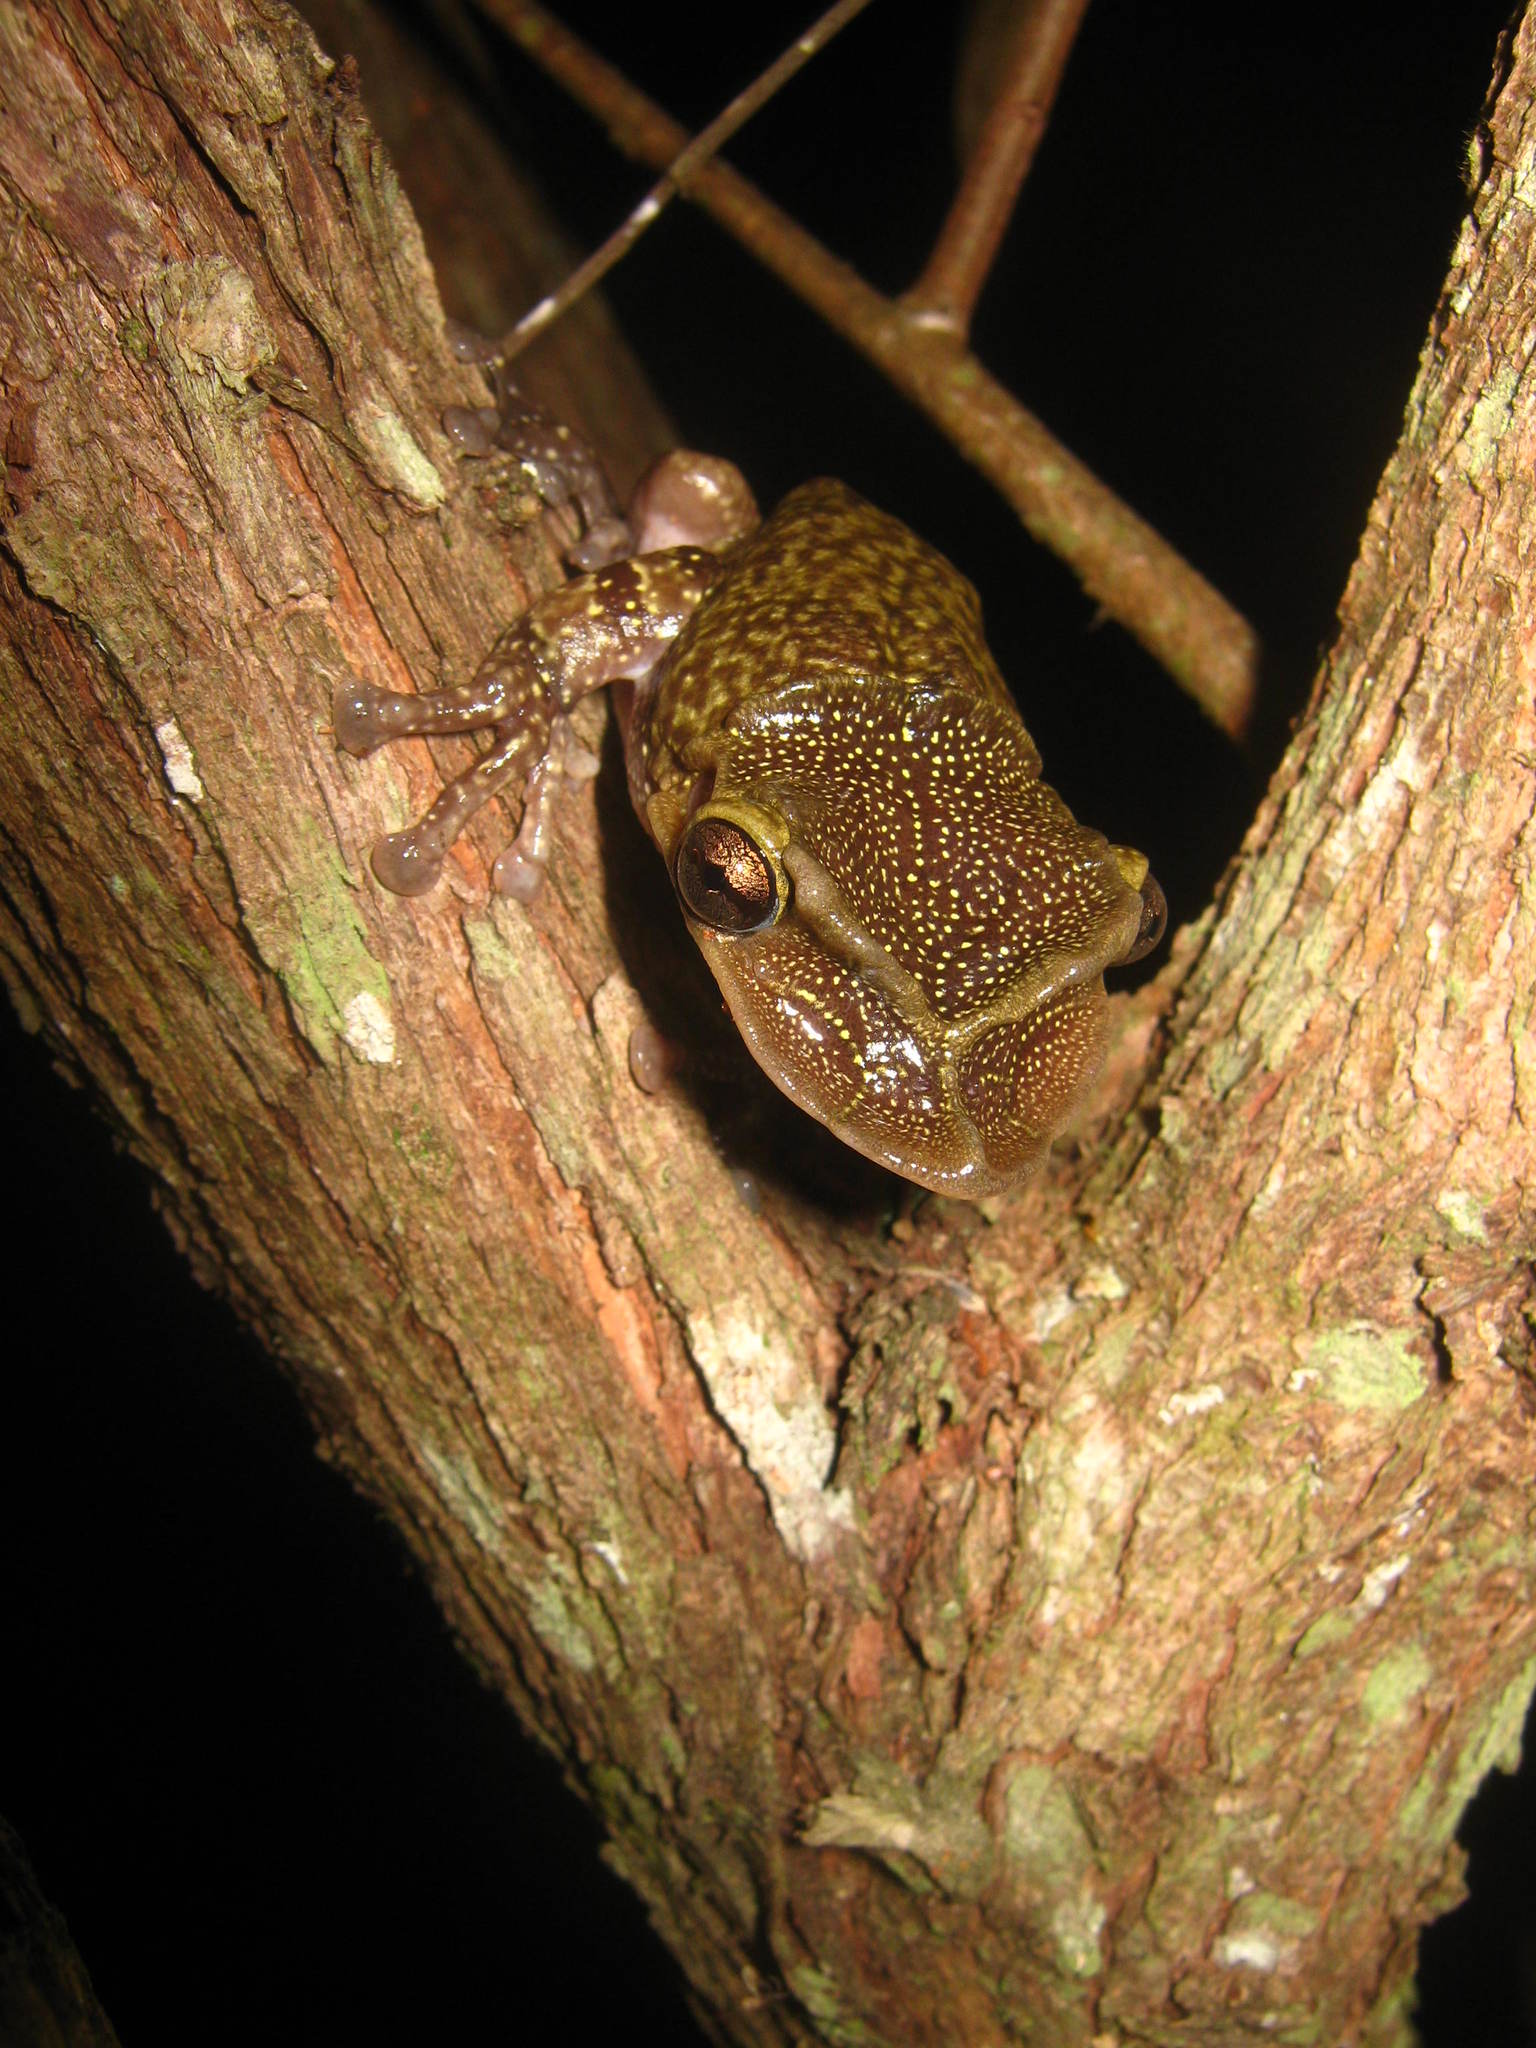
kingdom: Animalia
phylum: Chordata
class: Amphibia
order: Anura
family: Hylidae
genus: Triprion
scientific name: Triprion petasatus
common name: Yucatecan casque-headed treefrog
